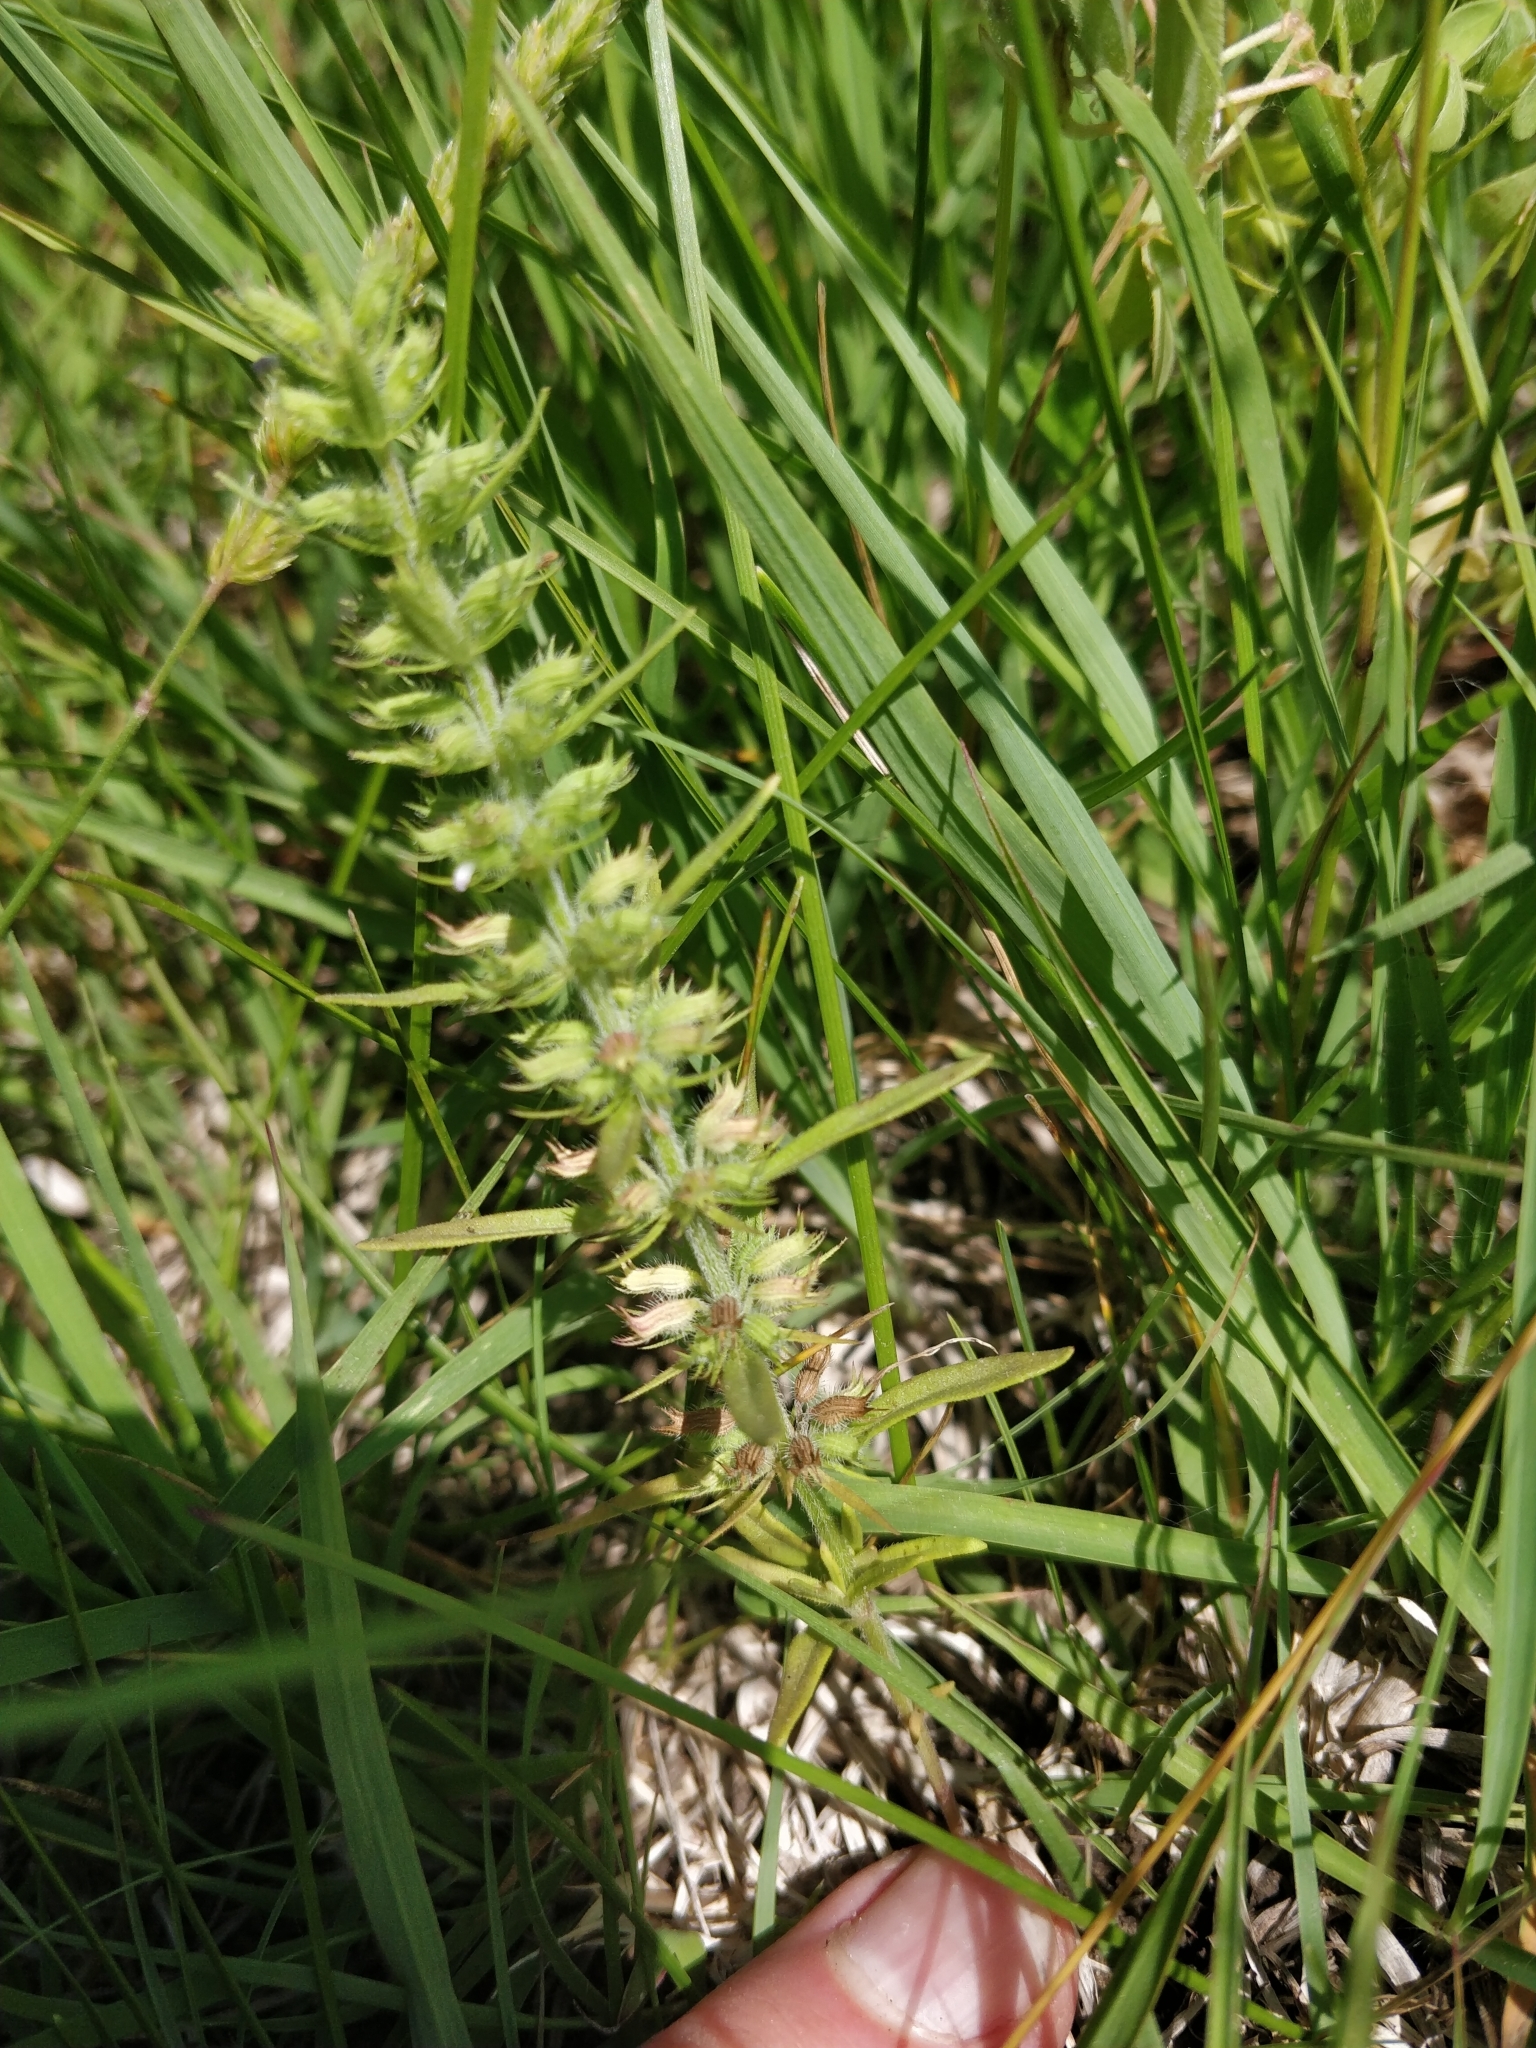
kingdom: Plantae
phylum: Tracheophyta
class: Magnoliopsida
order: Lamiales
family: Lamiaceae
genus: Hedeoma
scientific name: Hedeoma hispida
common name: Mock pennyroyal
